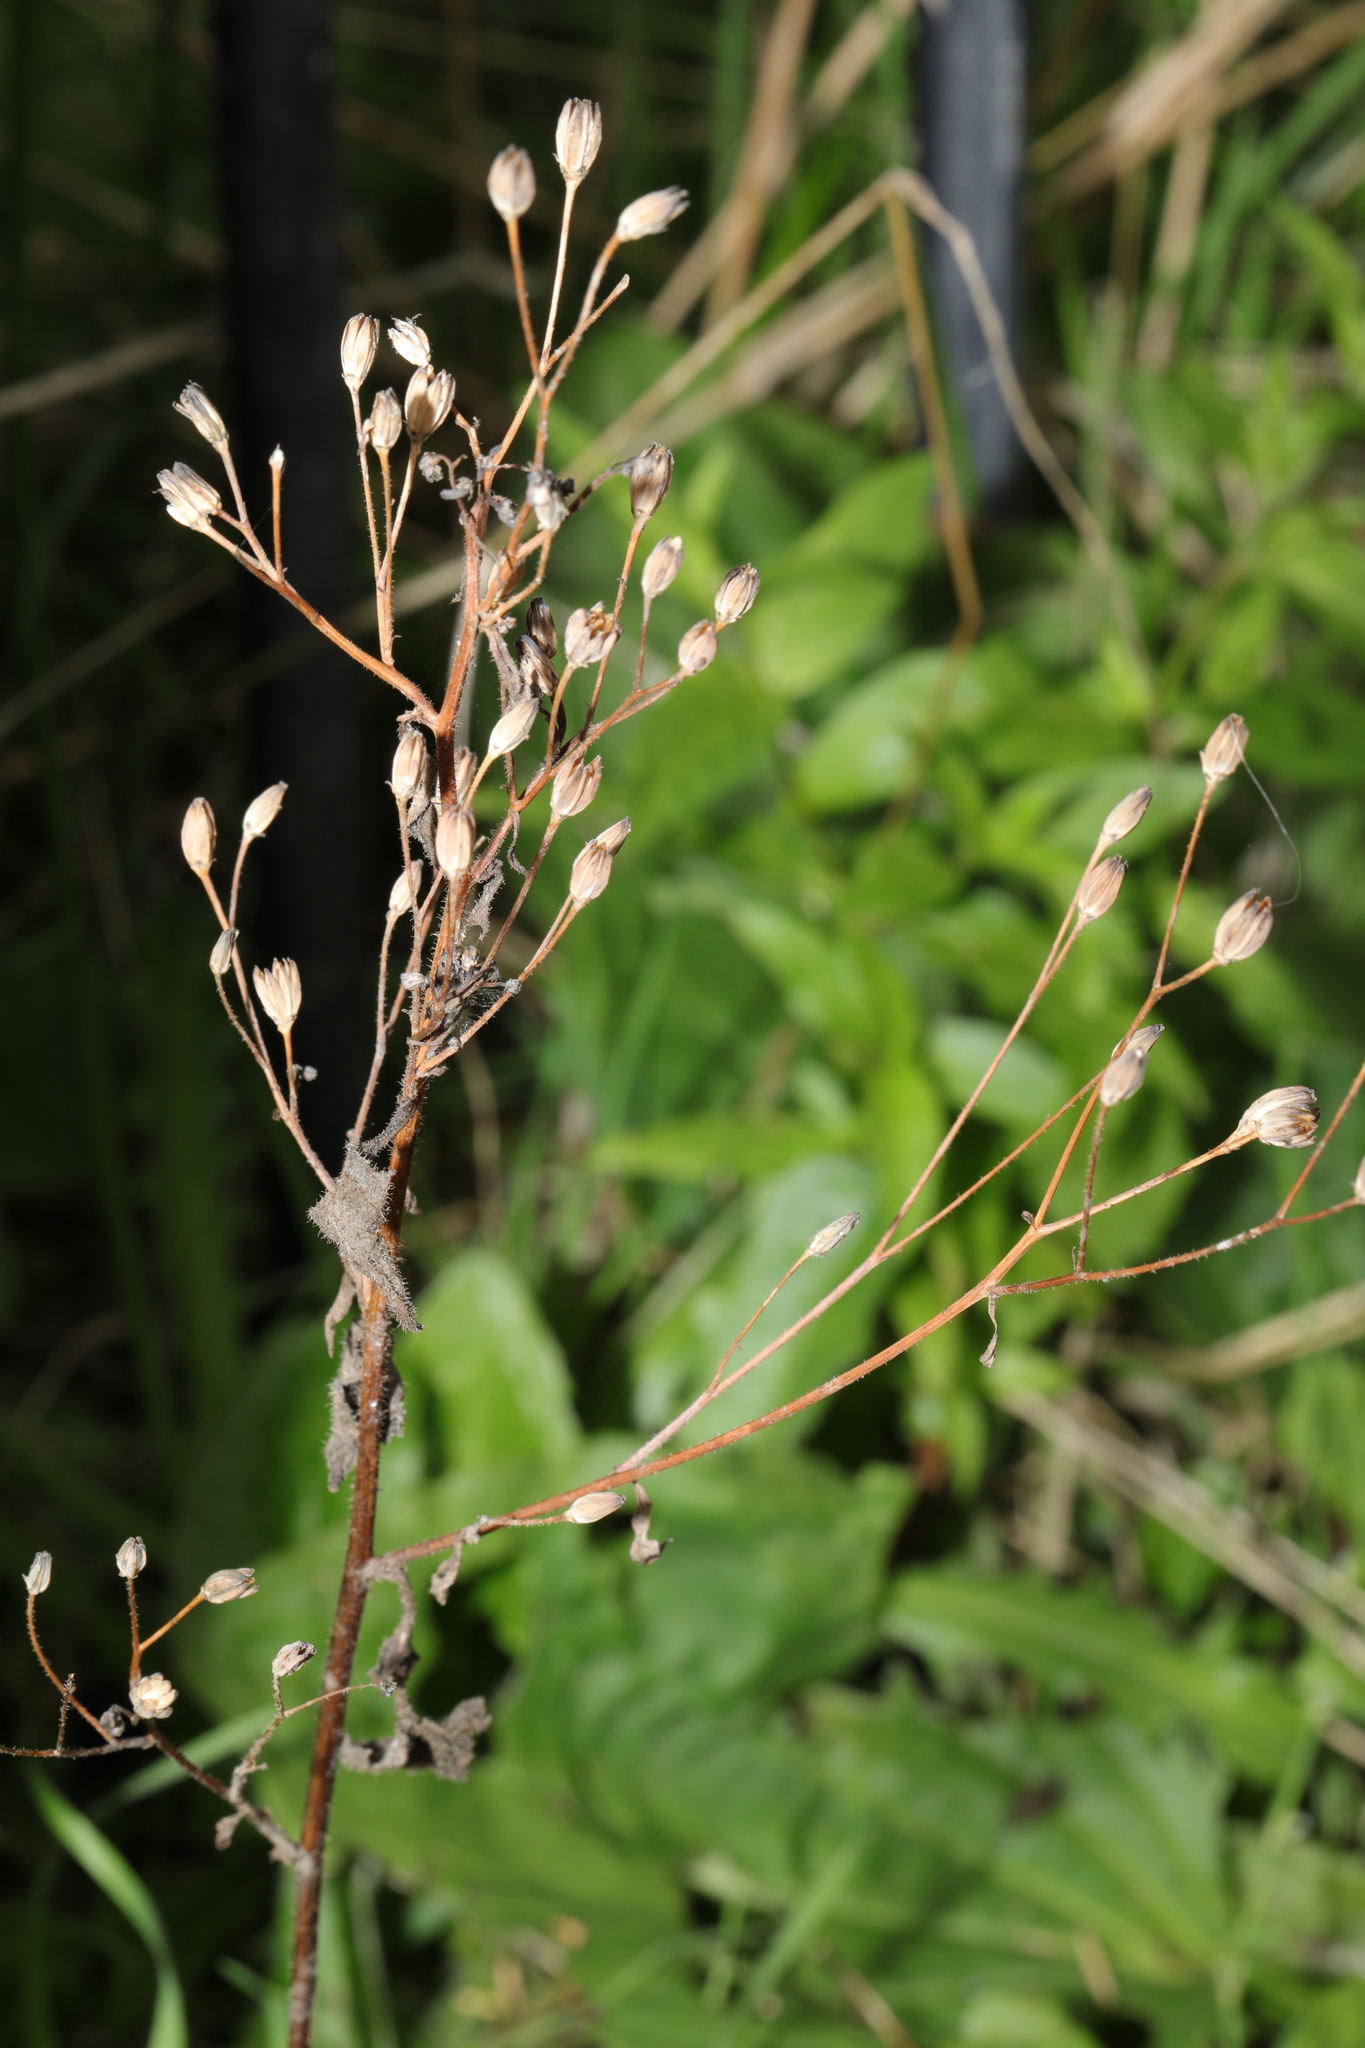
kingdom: Plantae
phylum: Tracheophyta
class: Magnoliopsida
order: Asterales
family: Asteraceae
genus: Lapsana
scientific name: Lapsana communis
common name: Nipplewort
